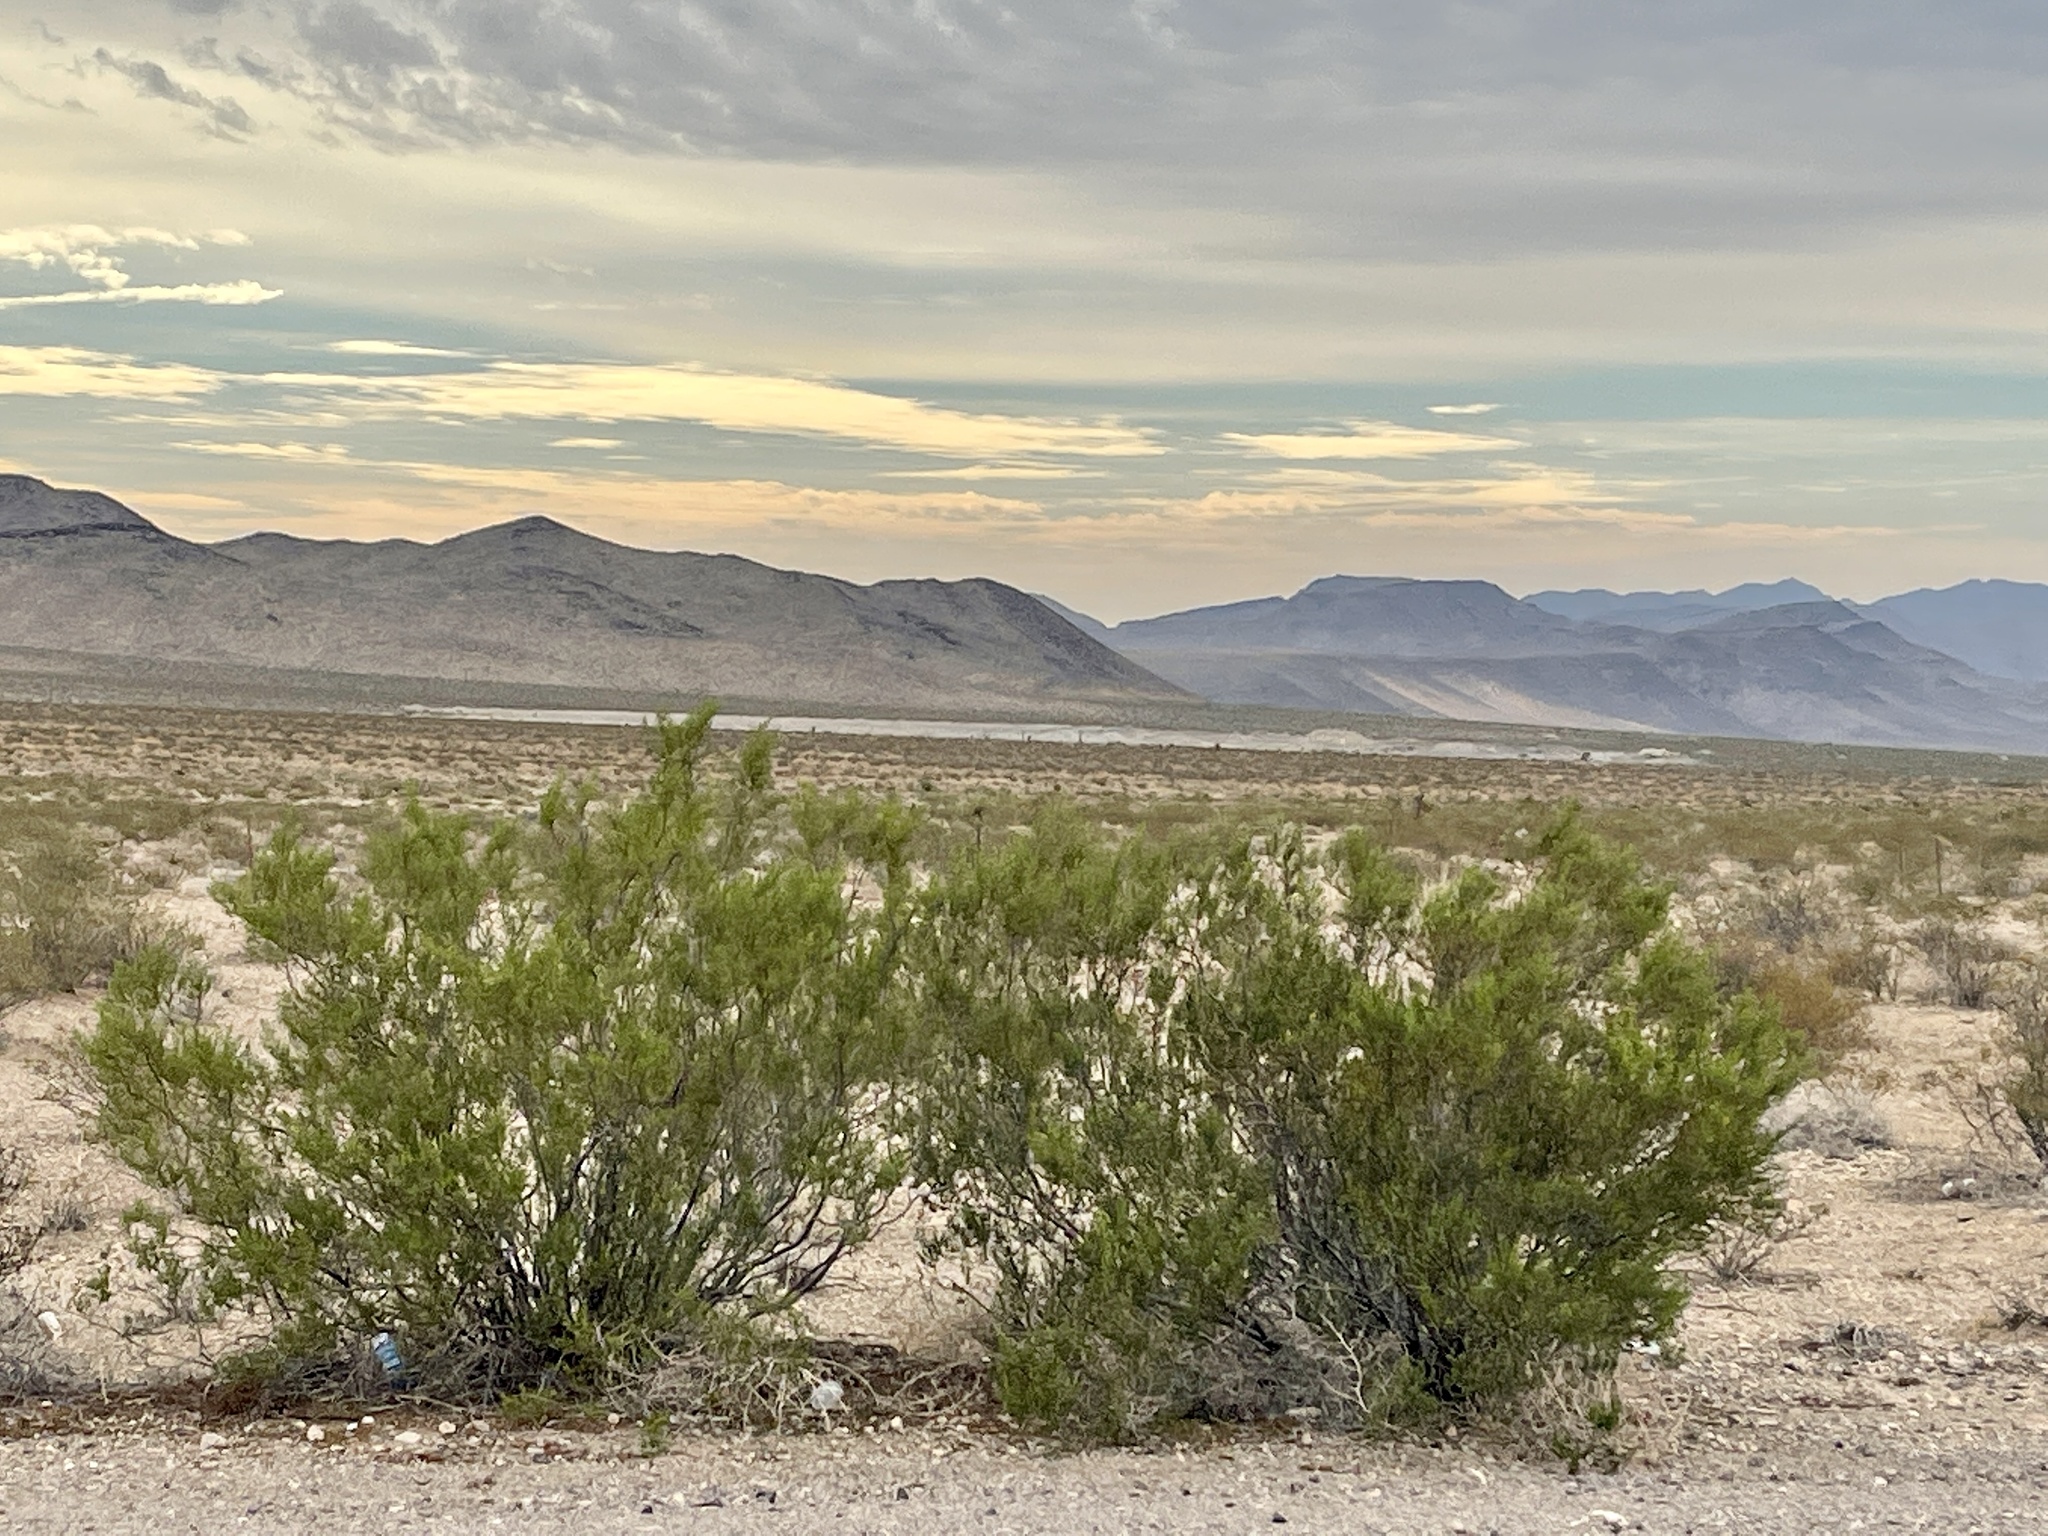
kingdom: Plantae
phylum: Tracheophyta
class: Magnoliopsida
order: Zygophyllales
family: Zygophyllaceae
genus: Larrea
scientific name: Larrea tridentata
